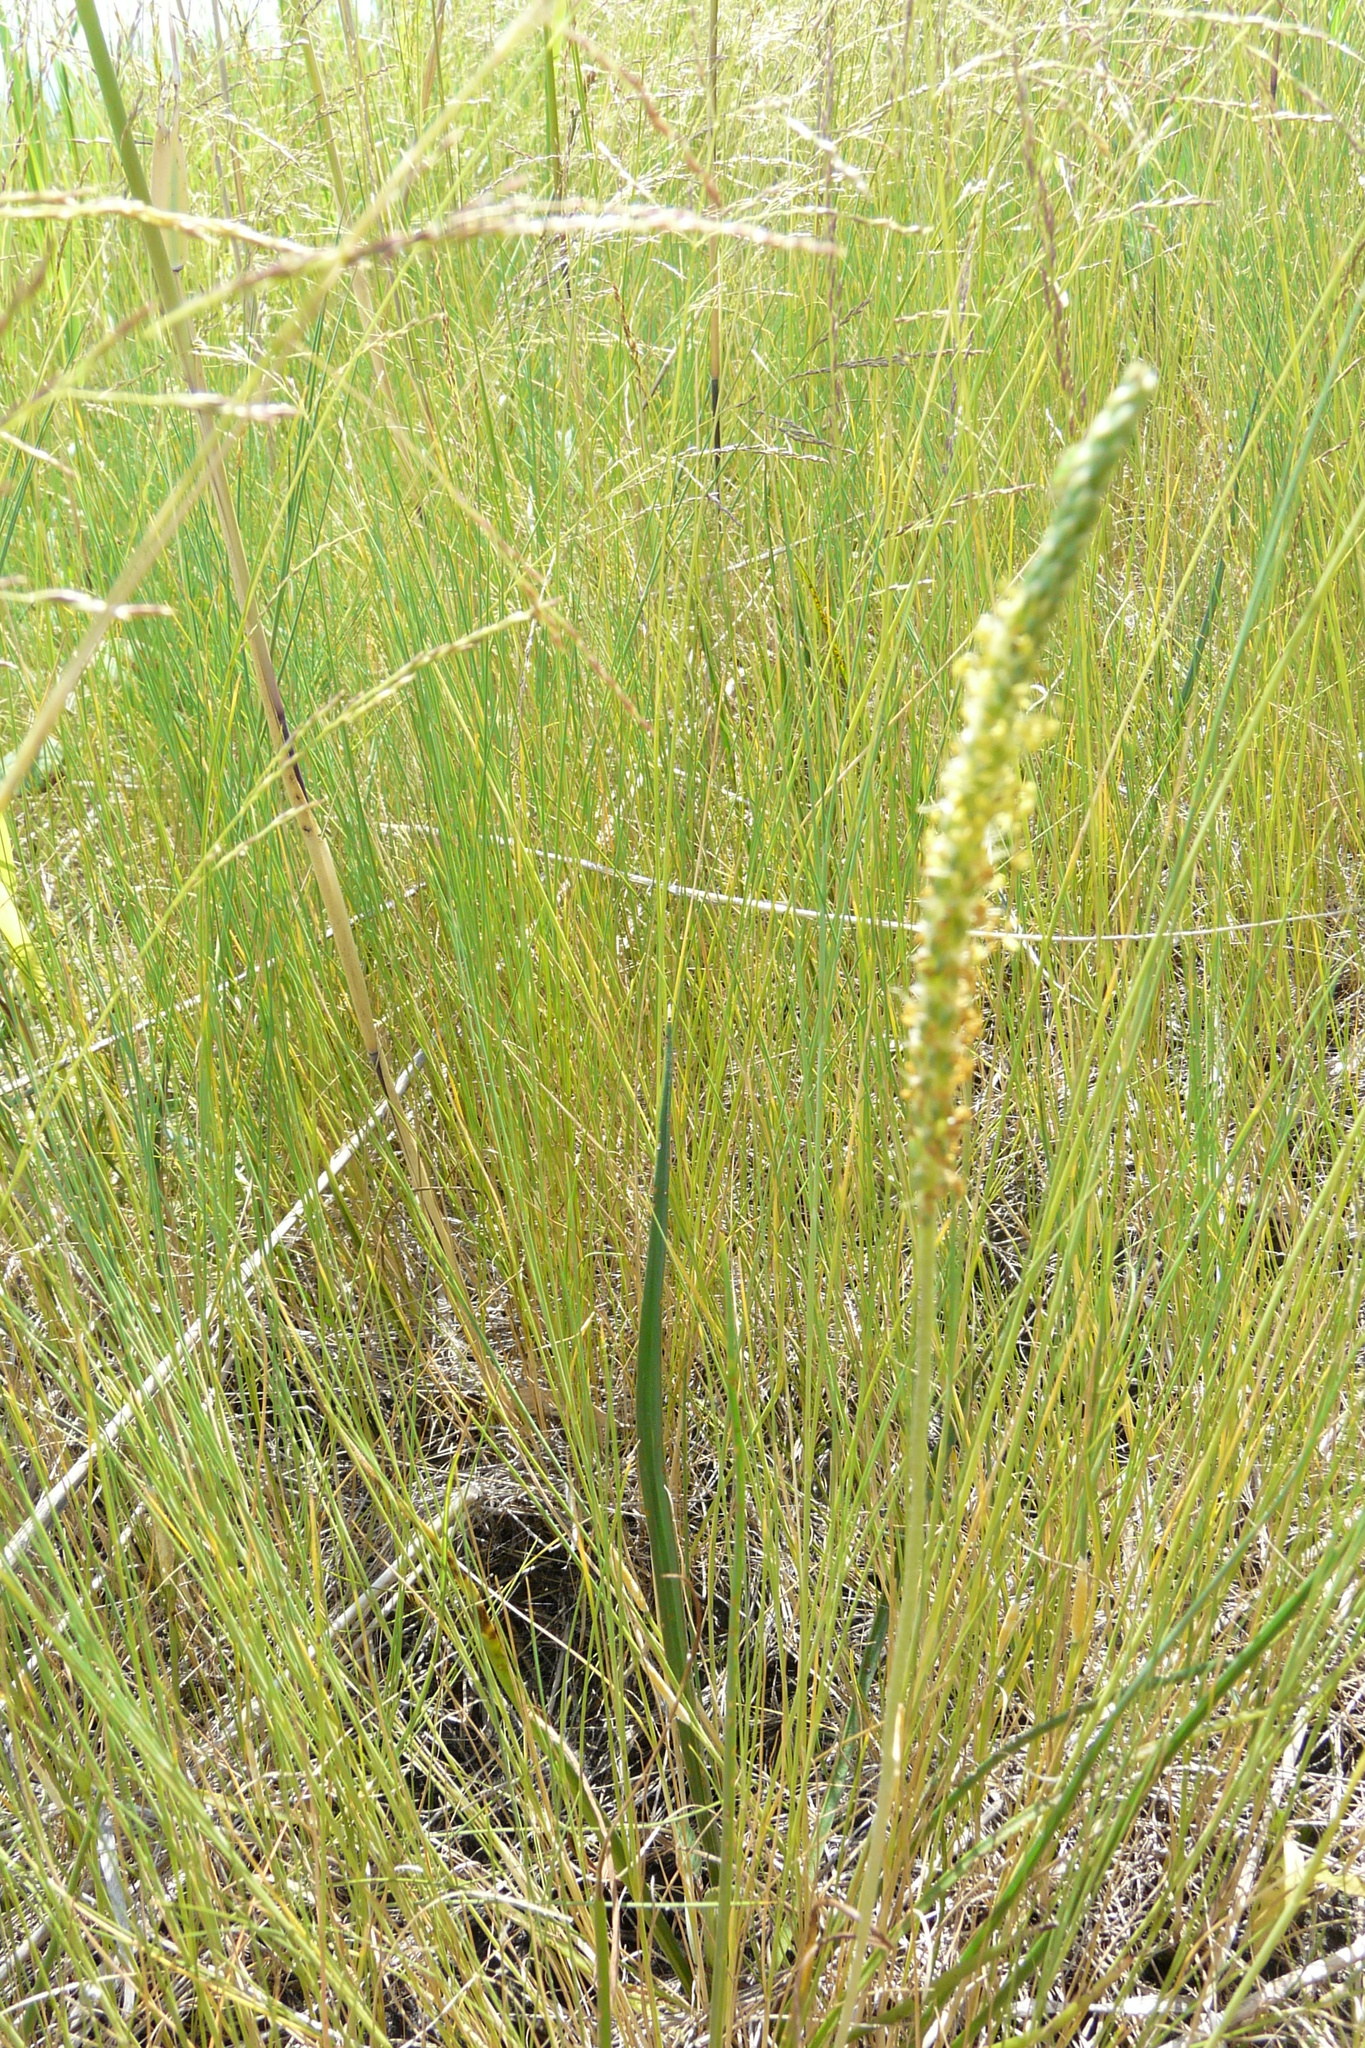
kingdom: Plantae
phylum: Tracheophyta
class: Magnoliopsida
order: Lamiales
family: Plantaginaceae
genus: Plantago
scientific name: Plantago salsa
